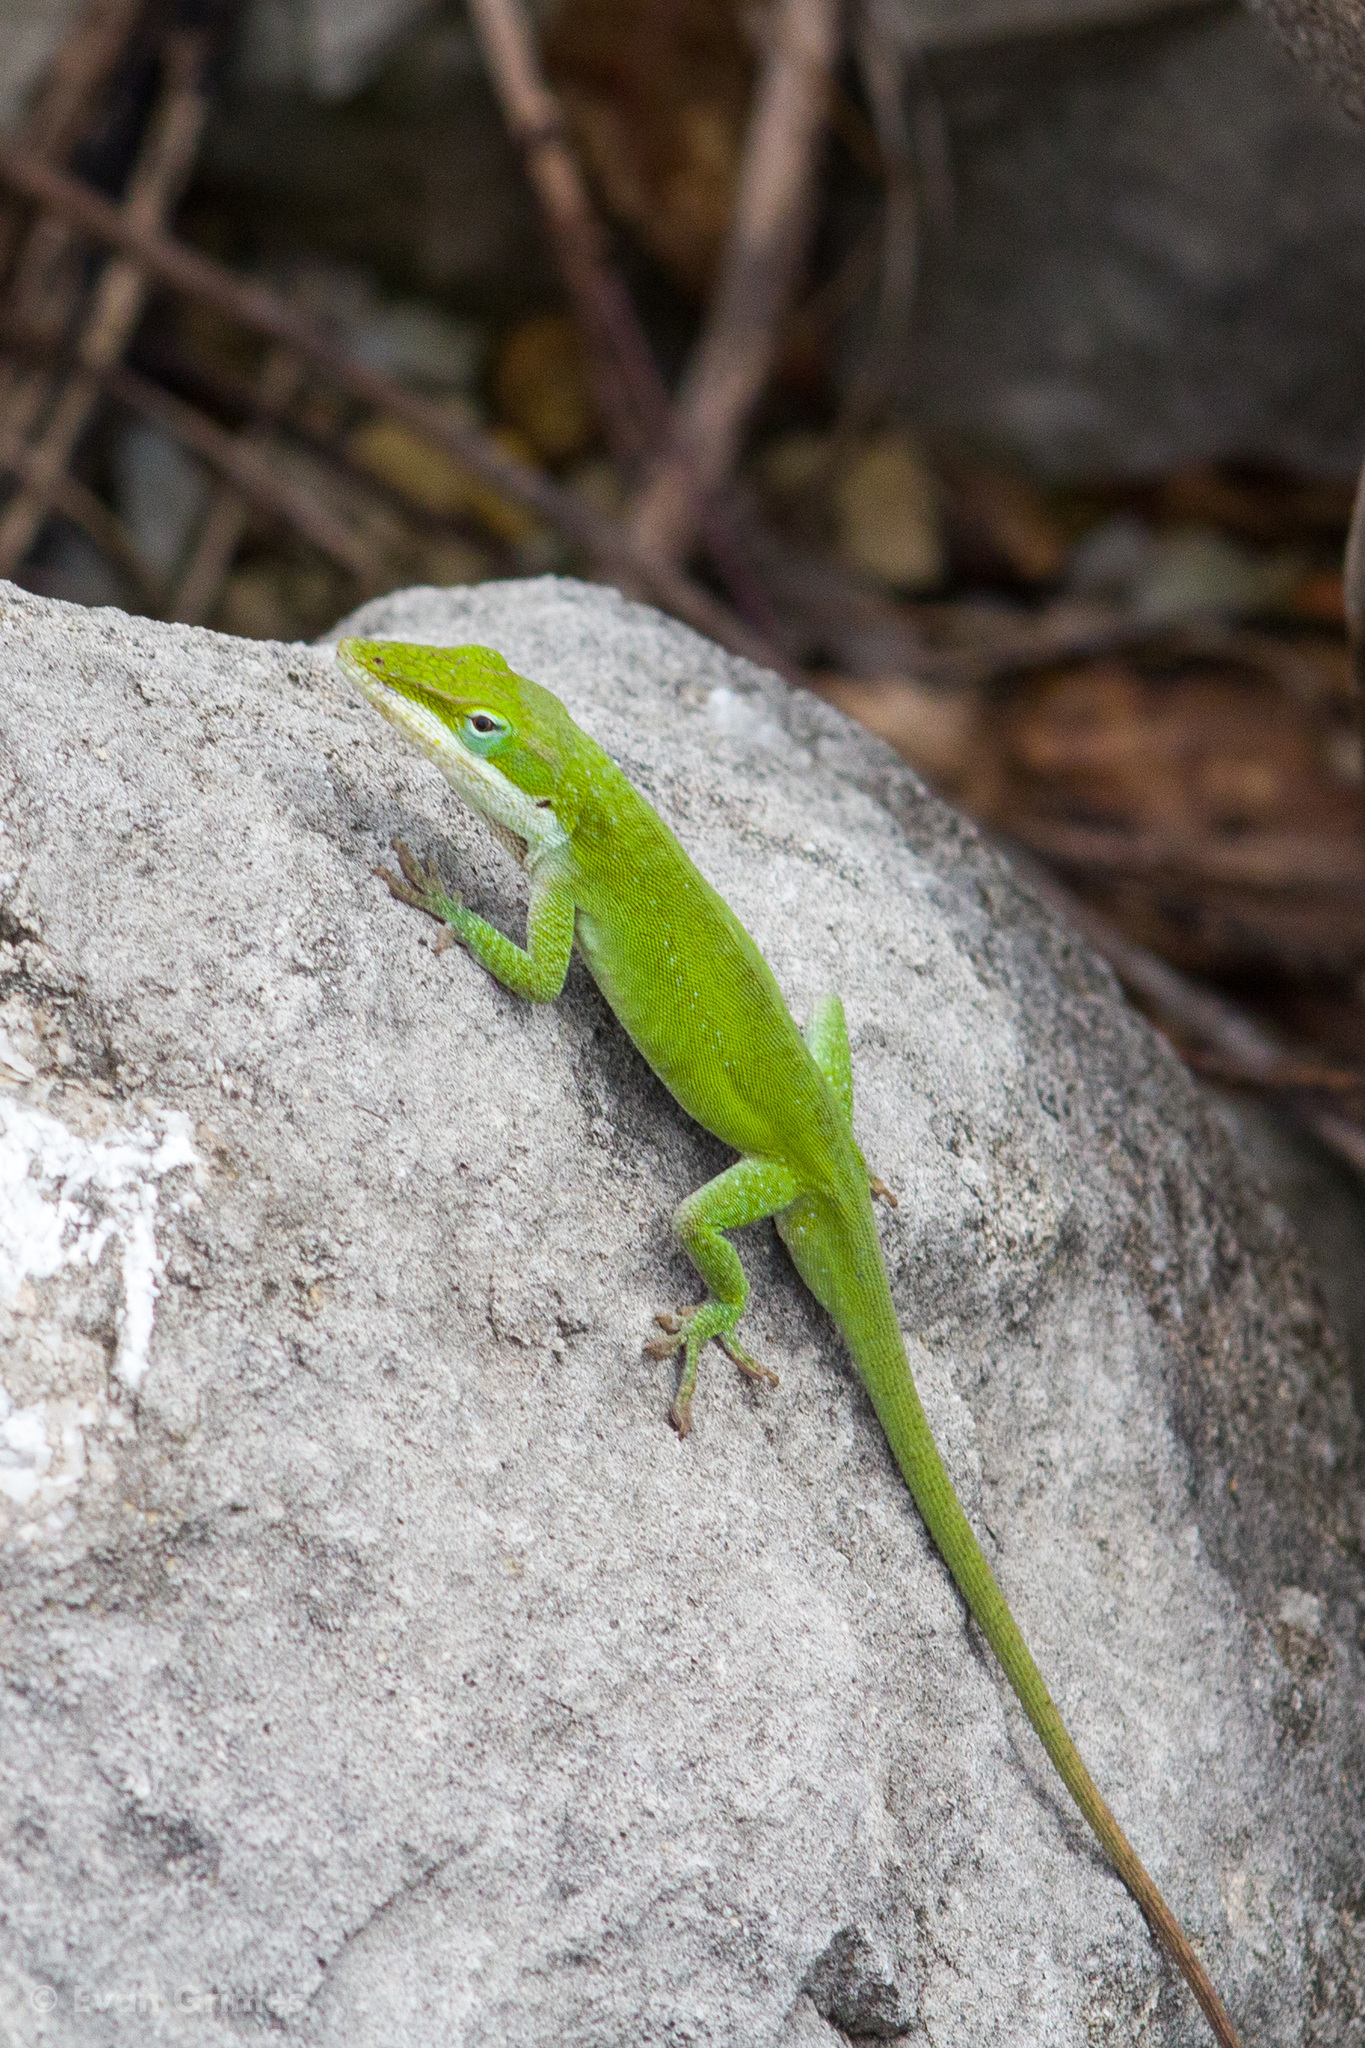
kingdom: Animalia
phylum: Chordata
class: Squamata
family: Dactyloidae
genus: Anolis
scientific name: Anolis carolinensis
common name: Green anole
